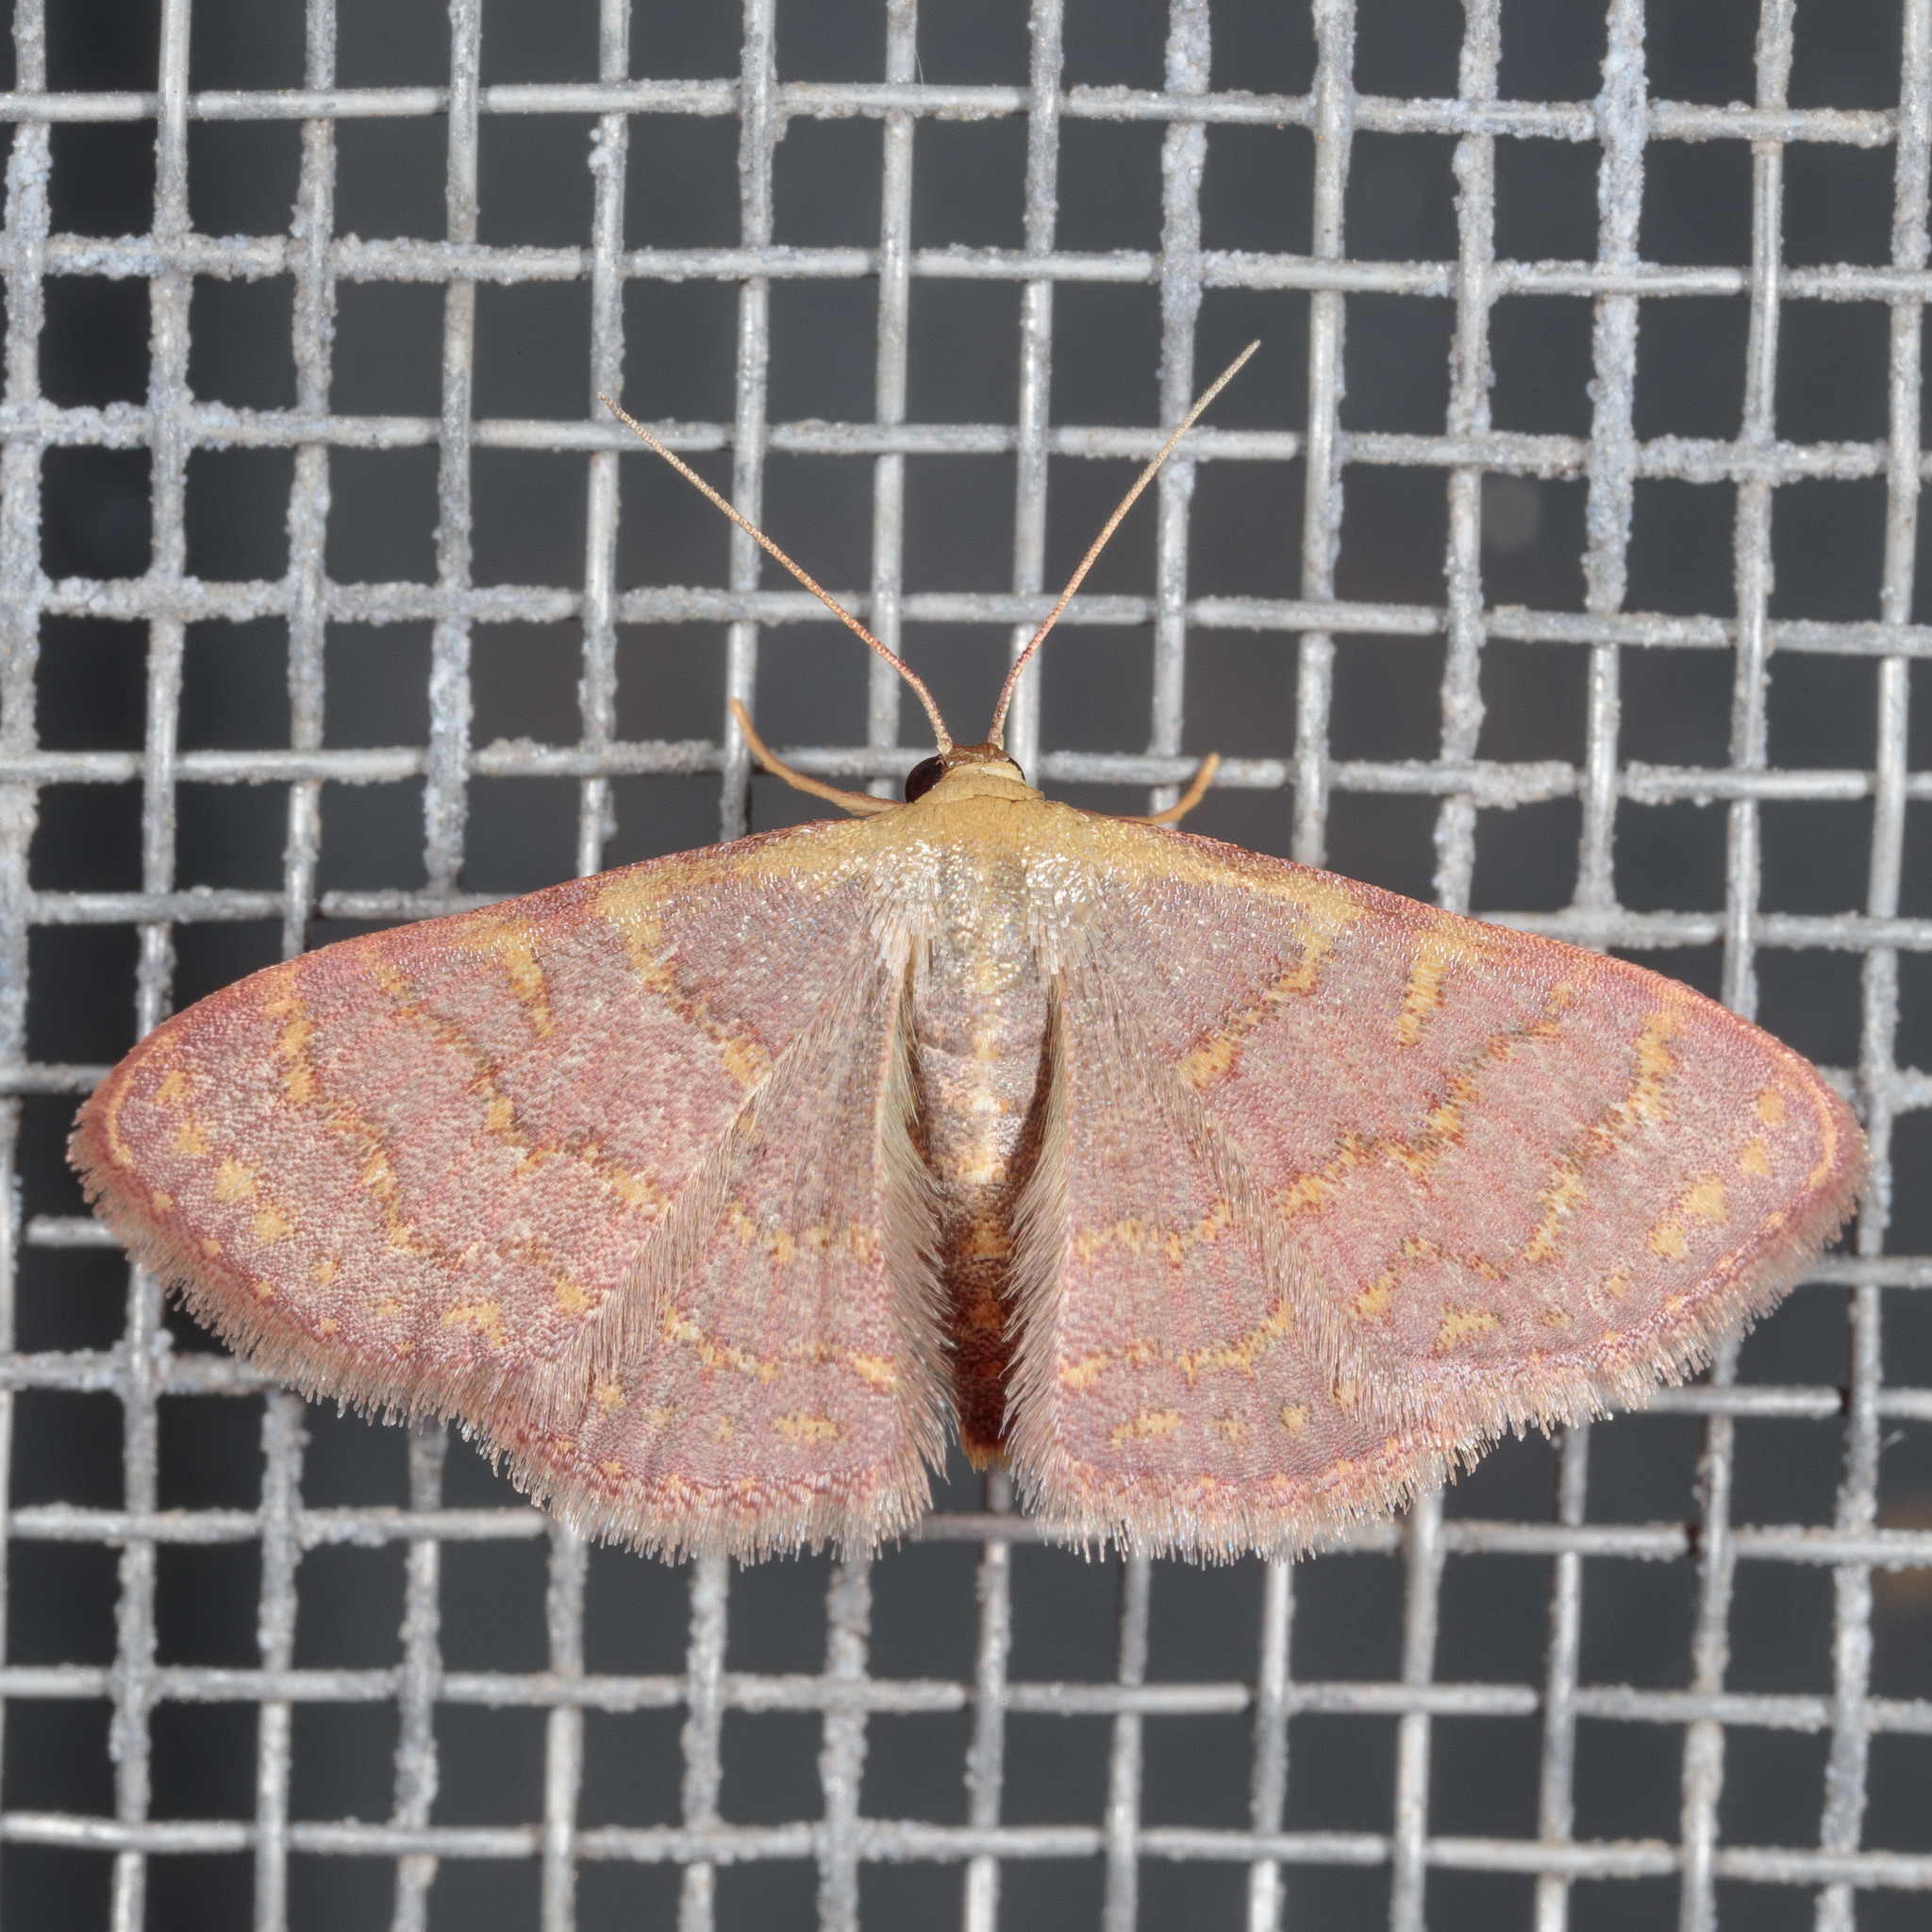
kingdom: Animalia
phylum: Arthropoda
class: Insecta
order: Lepidoptera
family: Geometridae
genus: Leptostales
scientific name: Leptostales pannaria
